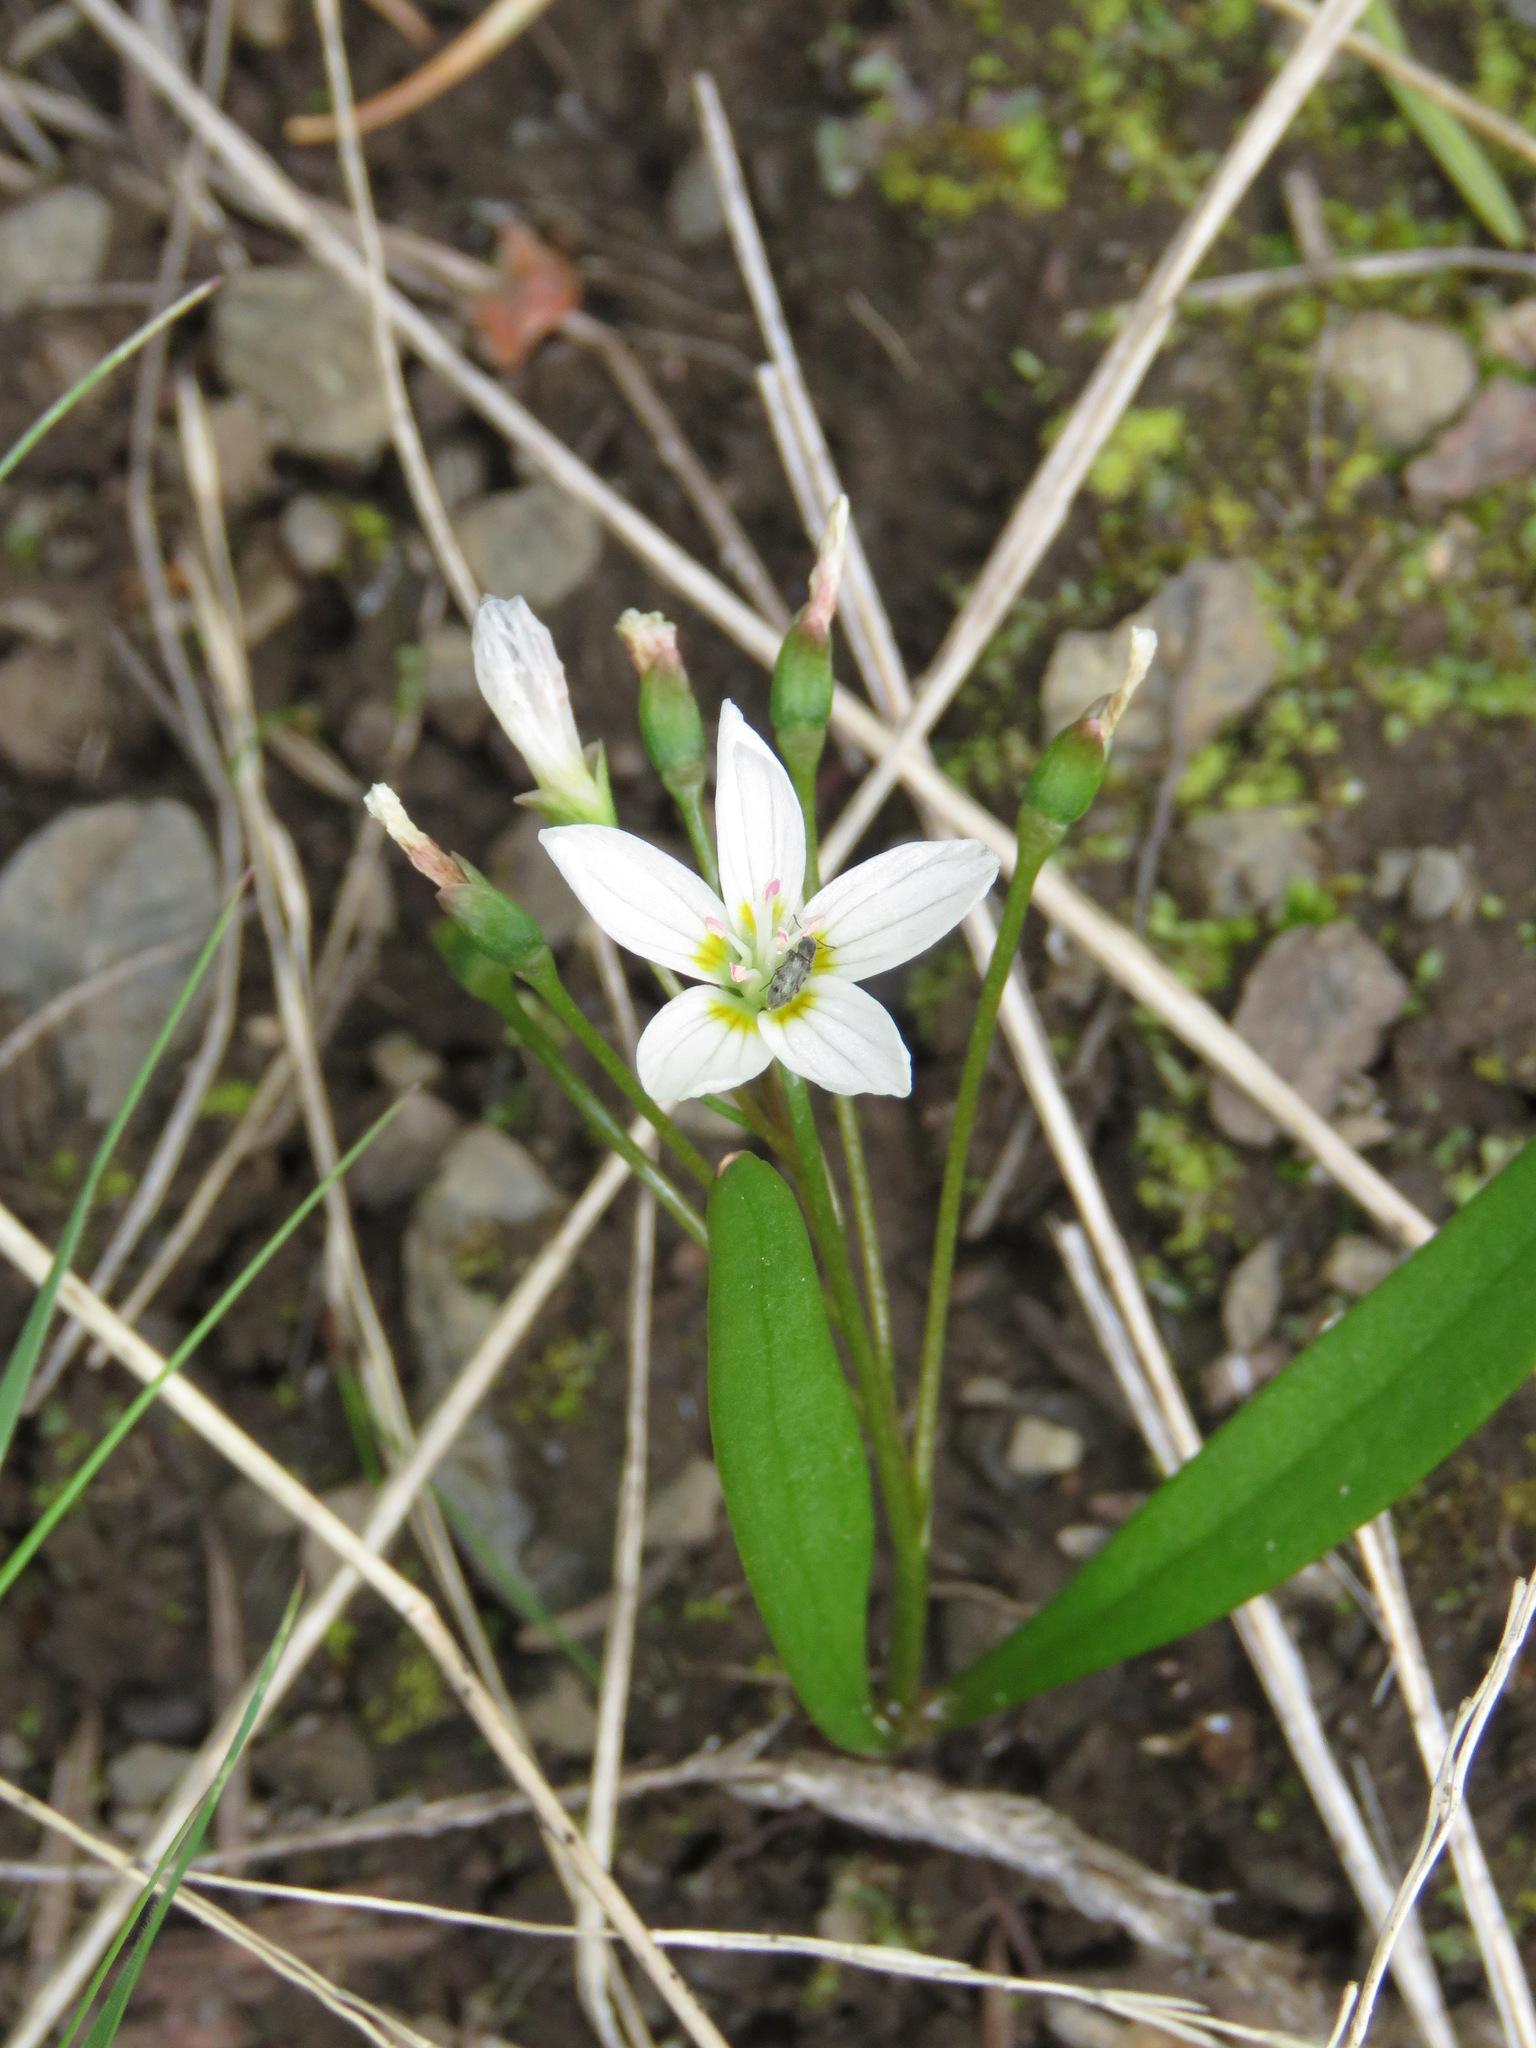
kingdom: Plantae
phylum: Tracheophyta
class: Magnoliopsida
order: Caryophyllales
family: Montiaceae
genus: Claytonia
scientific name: Claytonia lanceolata
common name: Western spring-beauty
